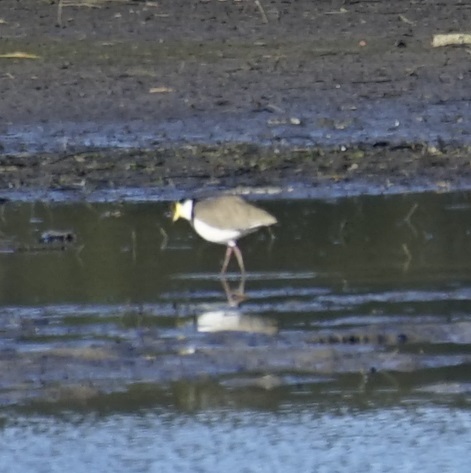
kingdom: Animalia
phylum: Chordata
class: Aves
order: Charadriiformes
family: Charadriidae
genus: Vanellus
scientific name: Vanellus miles
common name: Masked lapwing
